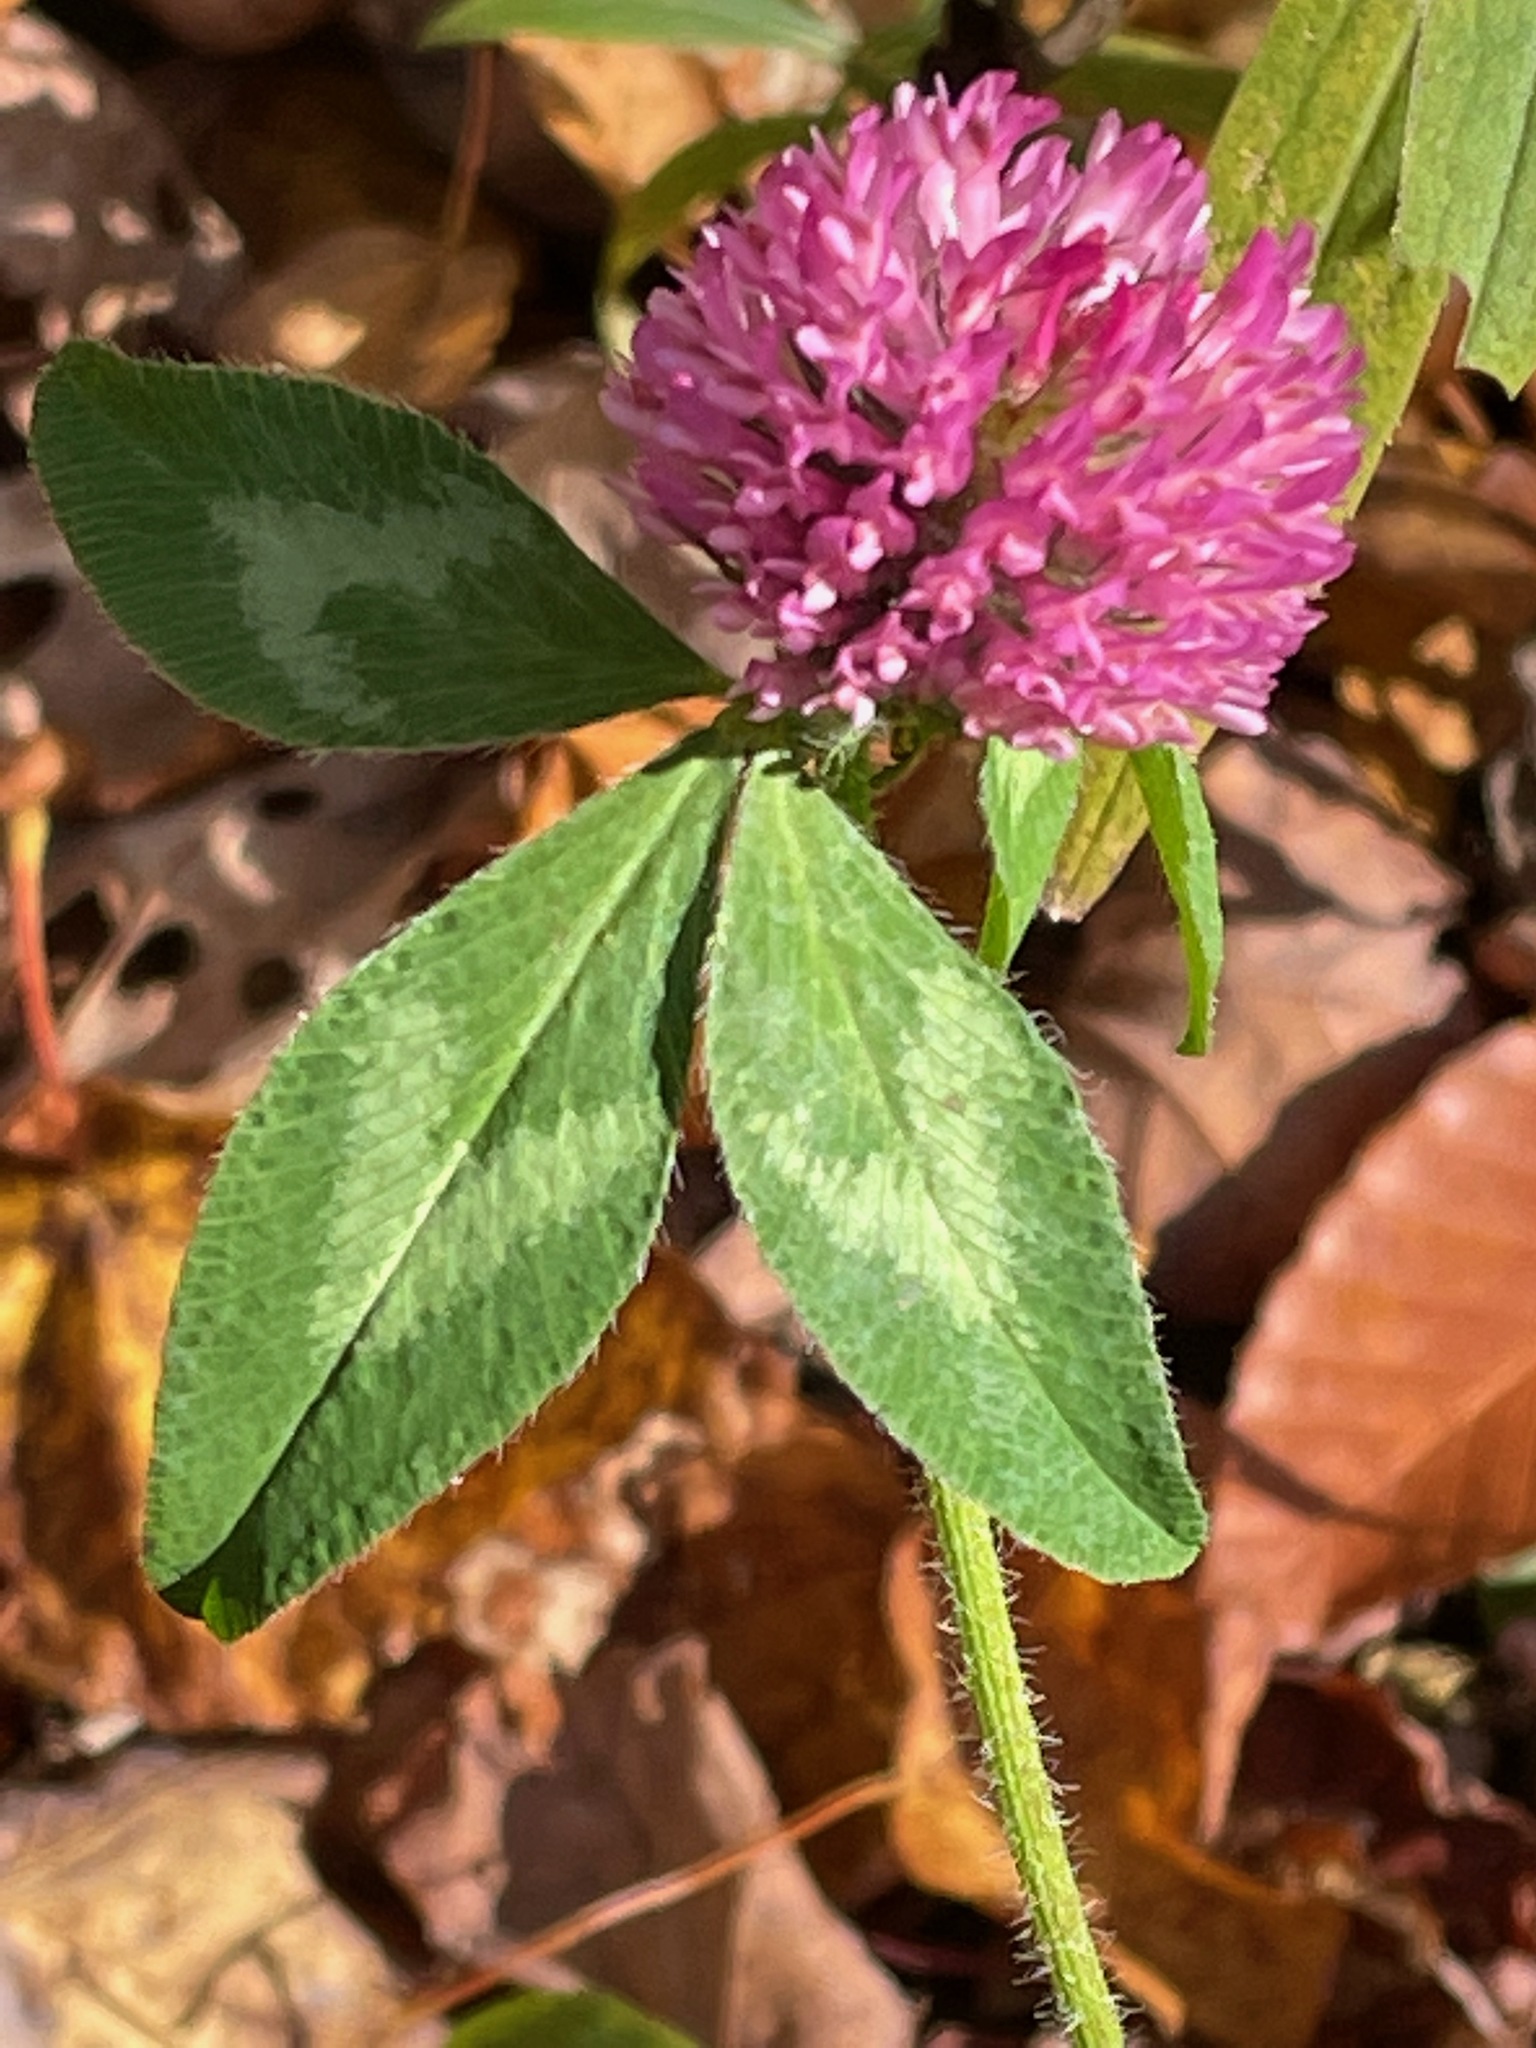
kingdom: Plantae
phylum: Tracheophyta
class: Magnoliopsida
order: Fabales
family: Fabaceae
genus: Trifolium
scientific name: Trifolium pratense
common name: Red clover
